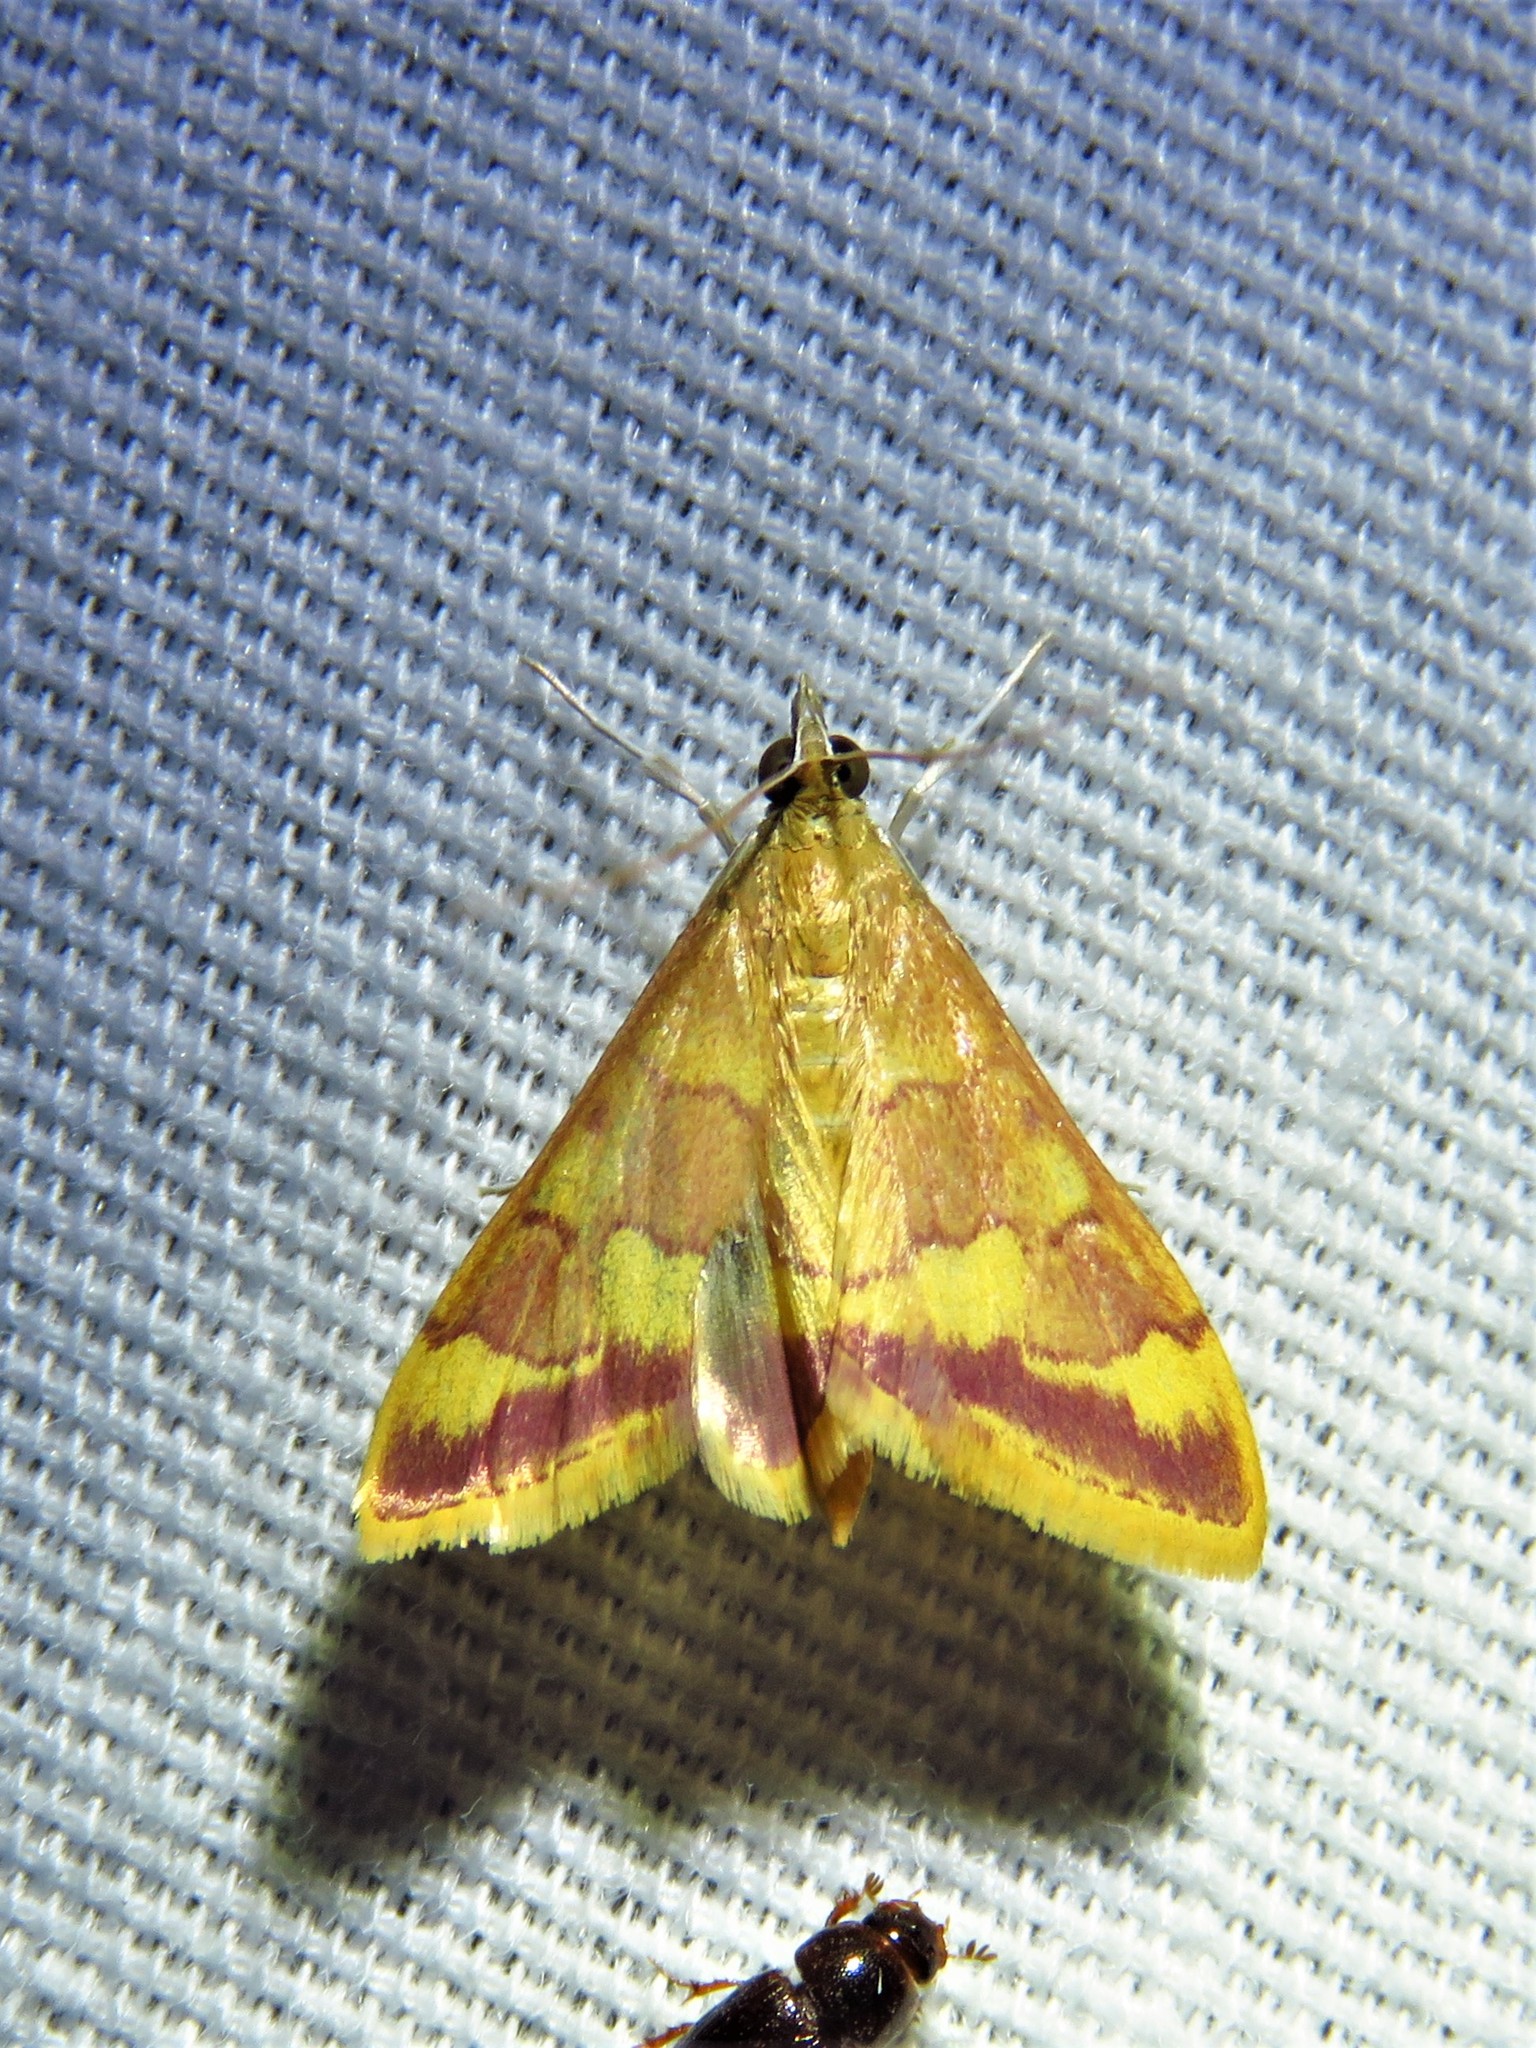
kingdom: Animalia
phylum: Arthropoda
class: Insecta
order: Lepidoptera
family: Crambidae
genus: Pyrausta
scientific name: Pyrausta pseudonythesalis
